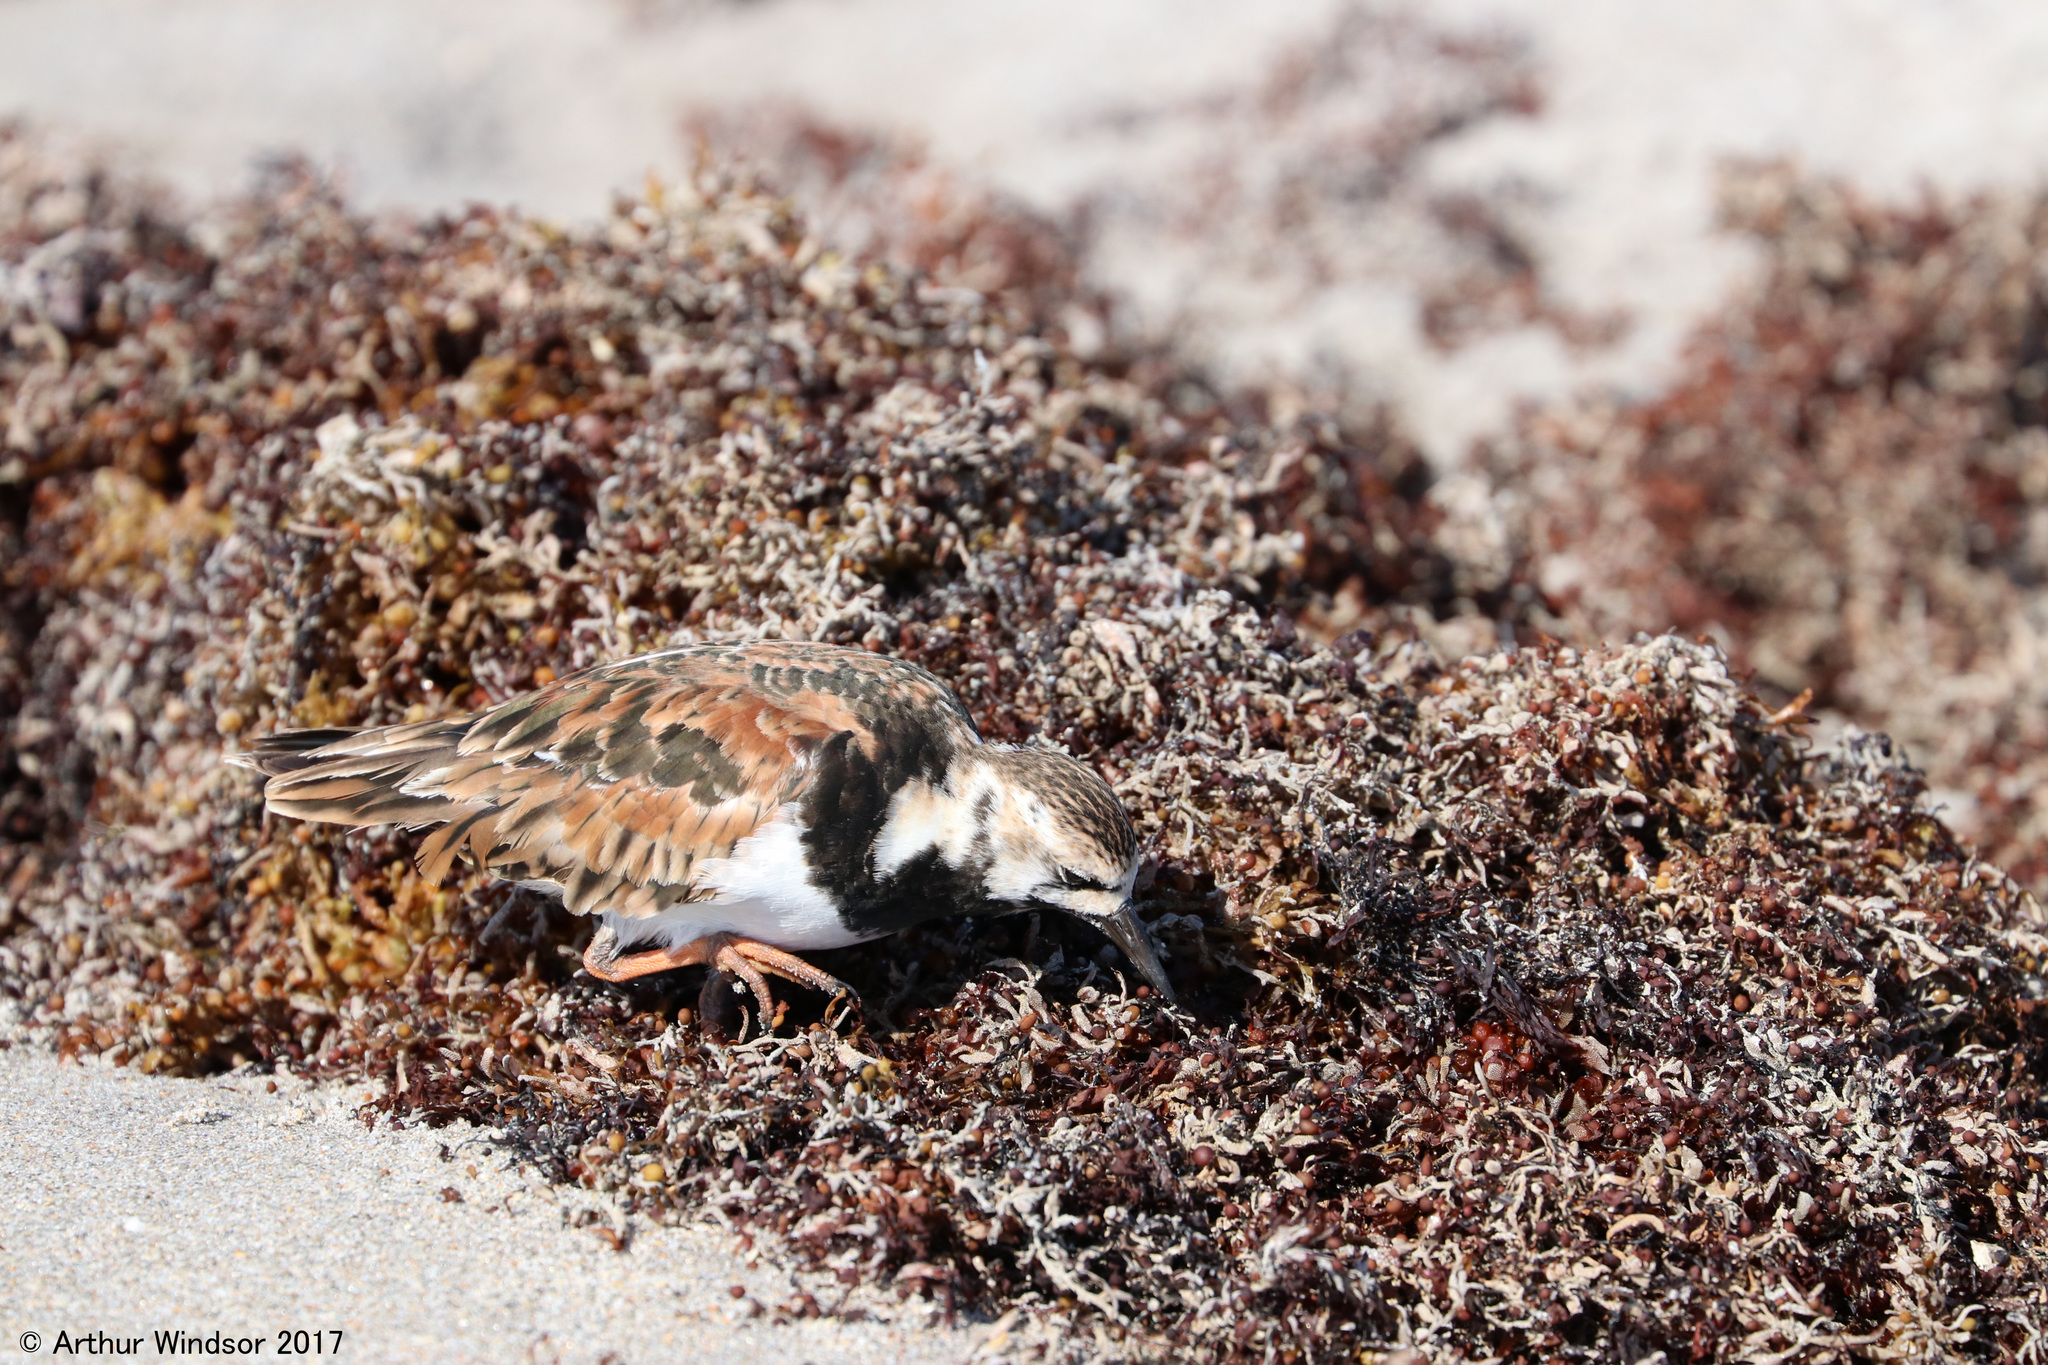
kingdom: Animalia
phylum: Chordata
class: Aves
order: Charadriiformes
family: Scolopacidae
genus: Arenaria
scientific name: Arenaria interpres
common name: Ruddy turnstone
